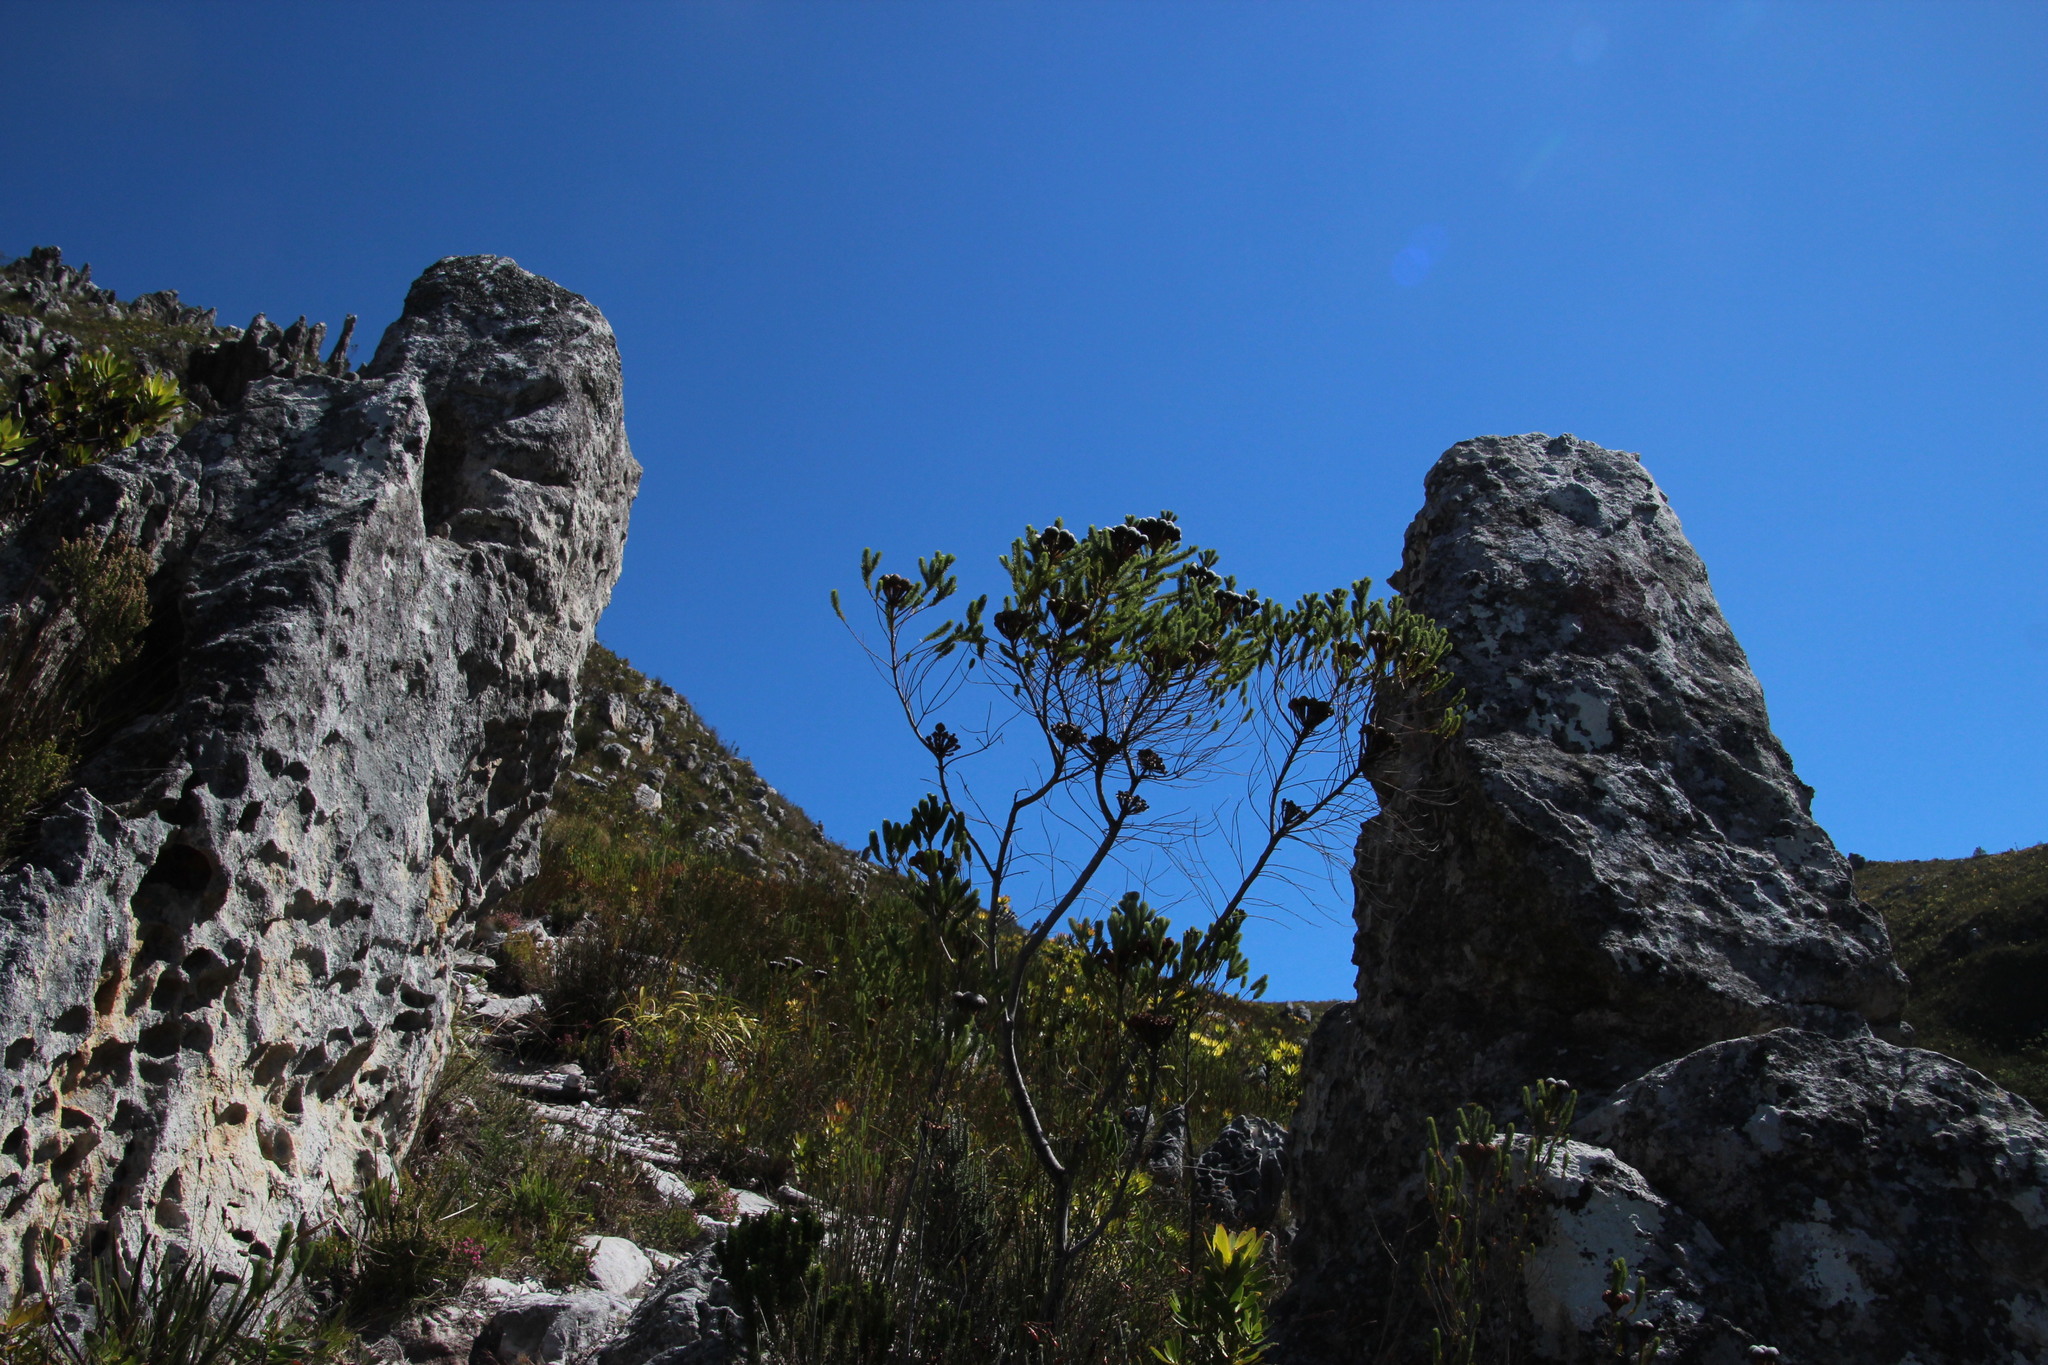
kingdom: Plantae
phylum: Tracheophyta
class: Magnoliopsida
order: Bruniales
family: Bruniaceae
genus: Berzelia
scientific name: Berzelia albiflora
